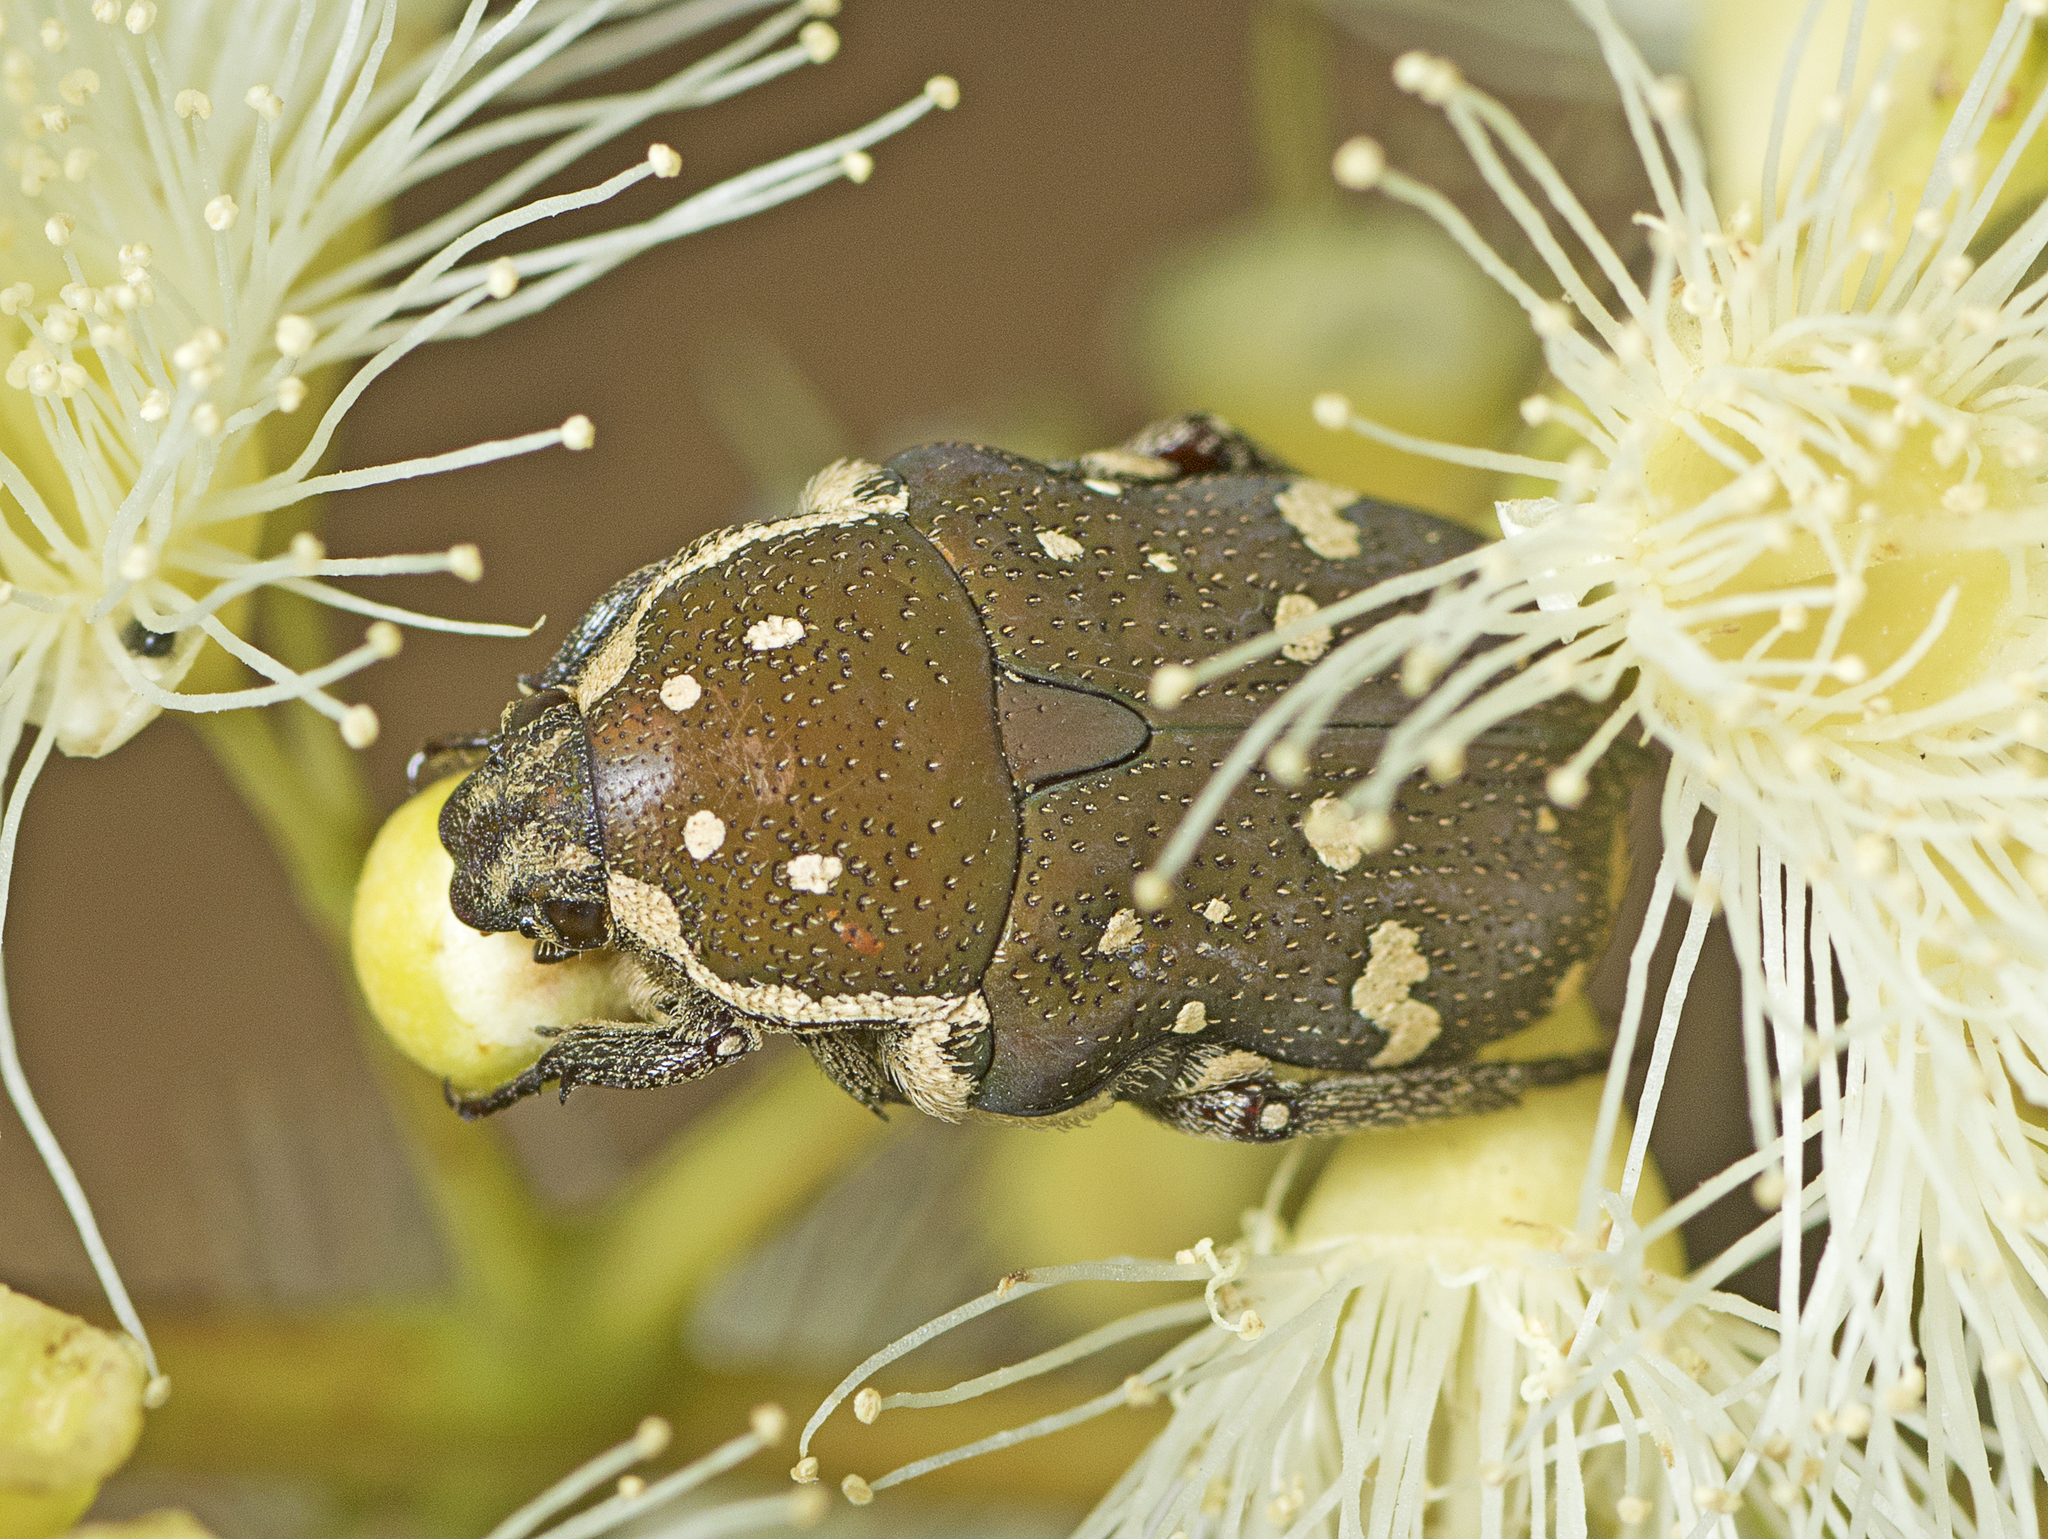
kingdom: Animalia
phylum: Arthropoda
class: Insecta
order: Coleoptera
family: Scarabaeidae
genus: Glycyphana
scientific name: Glycyphana stolata
